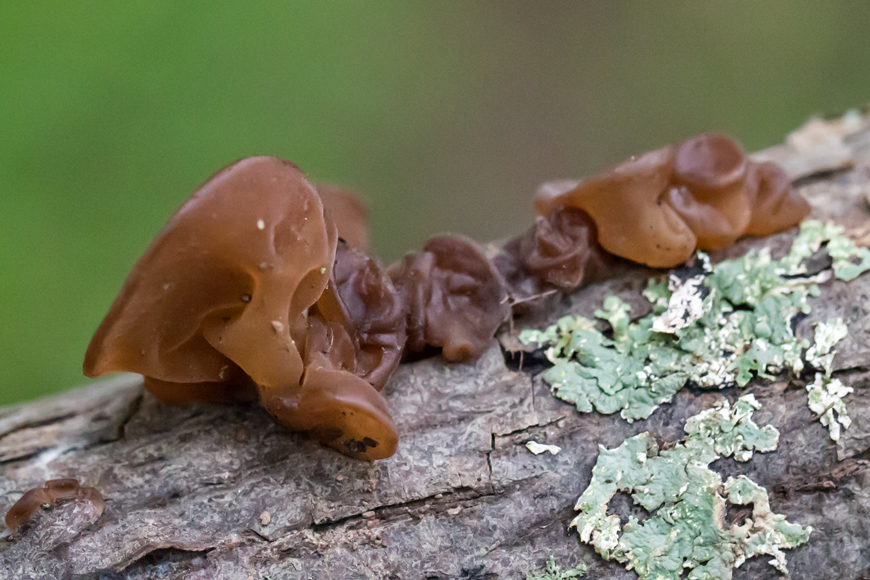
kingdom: Fungi
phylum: Basidiomycota
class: Agaricomycetes
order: Auriculariales
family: Auriculariaceae
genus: Auricularia
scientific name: Auricularia americana
